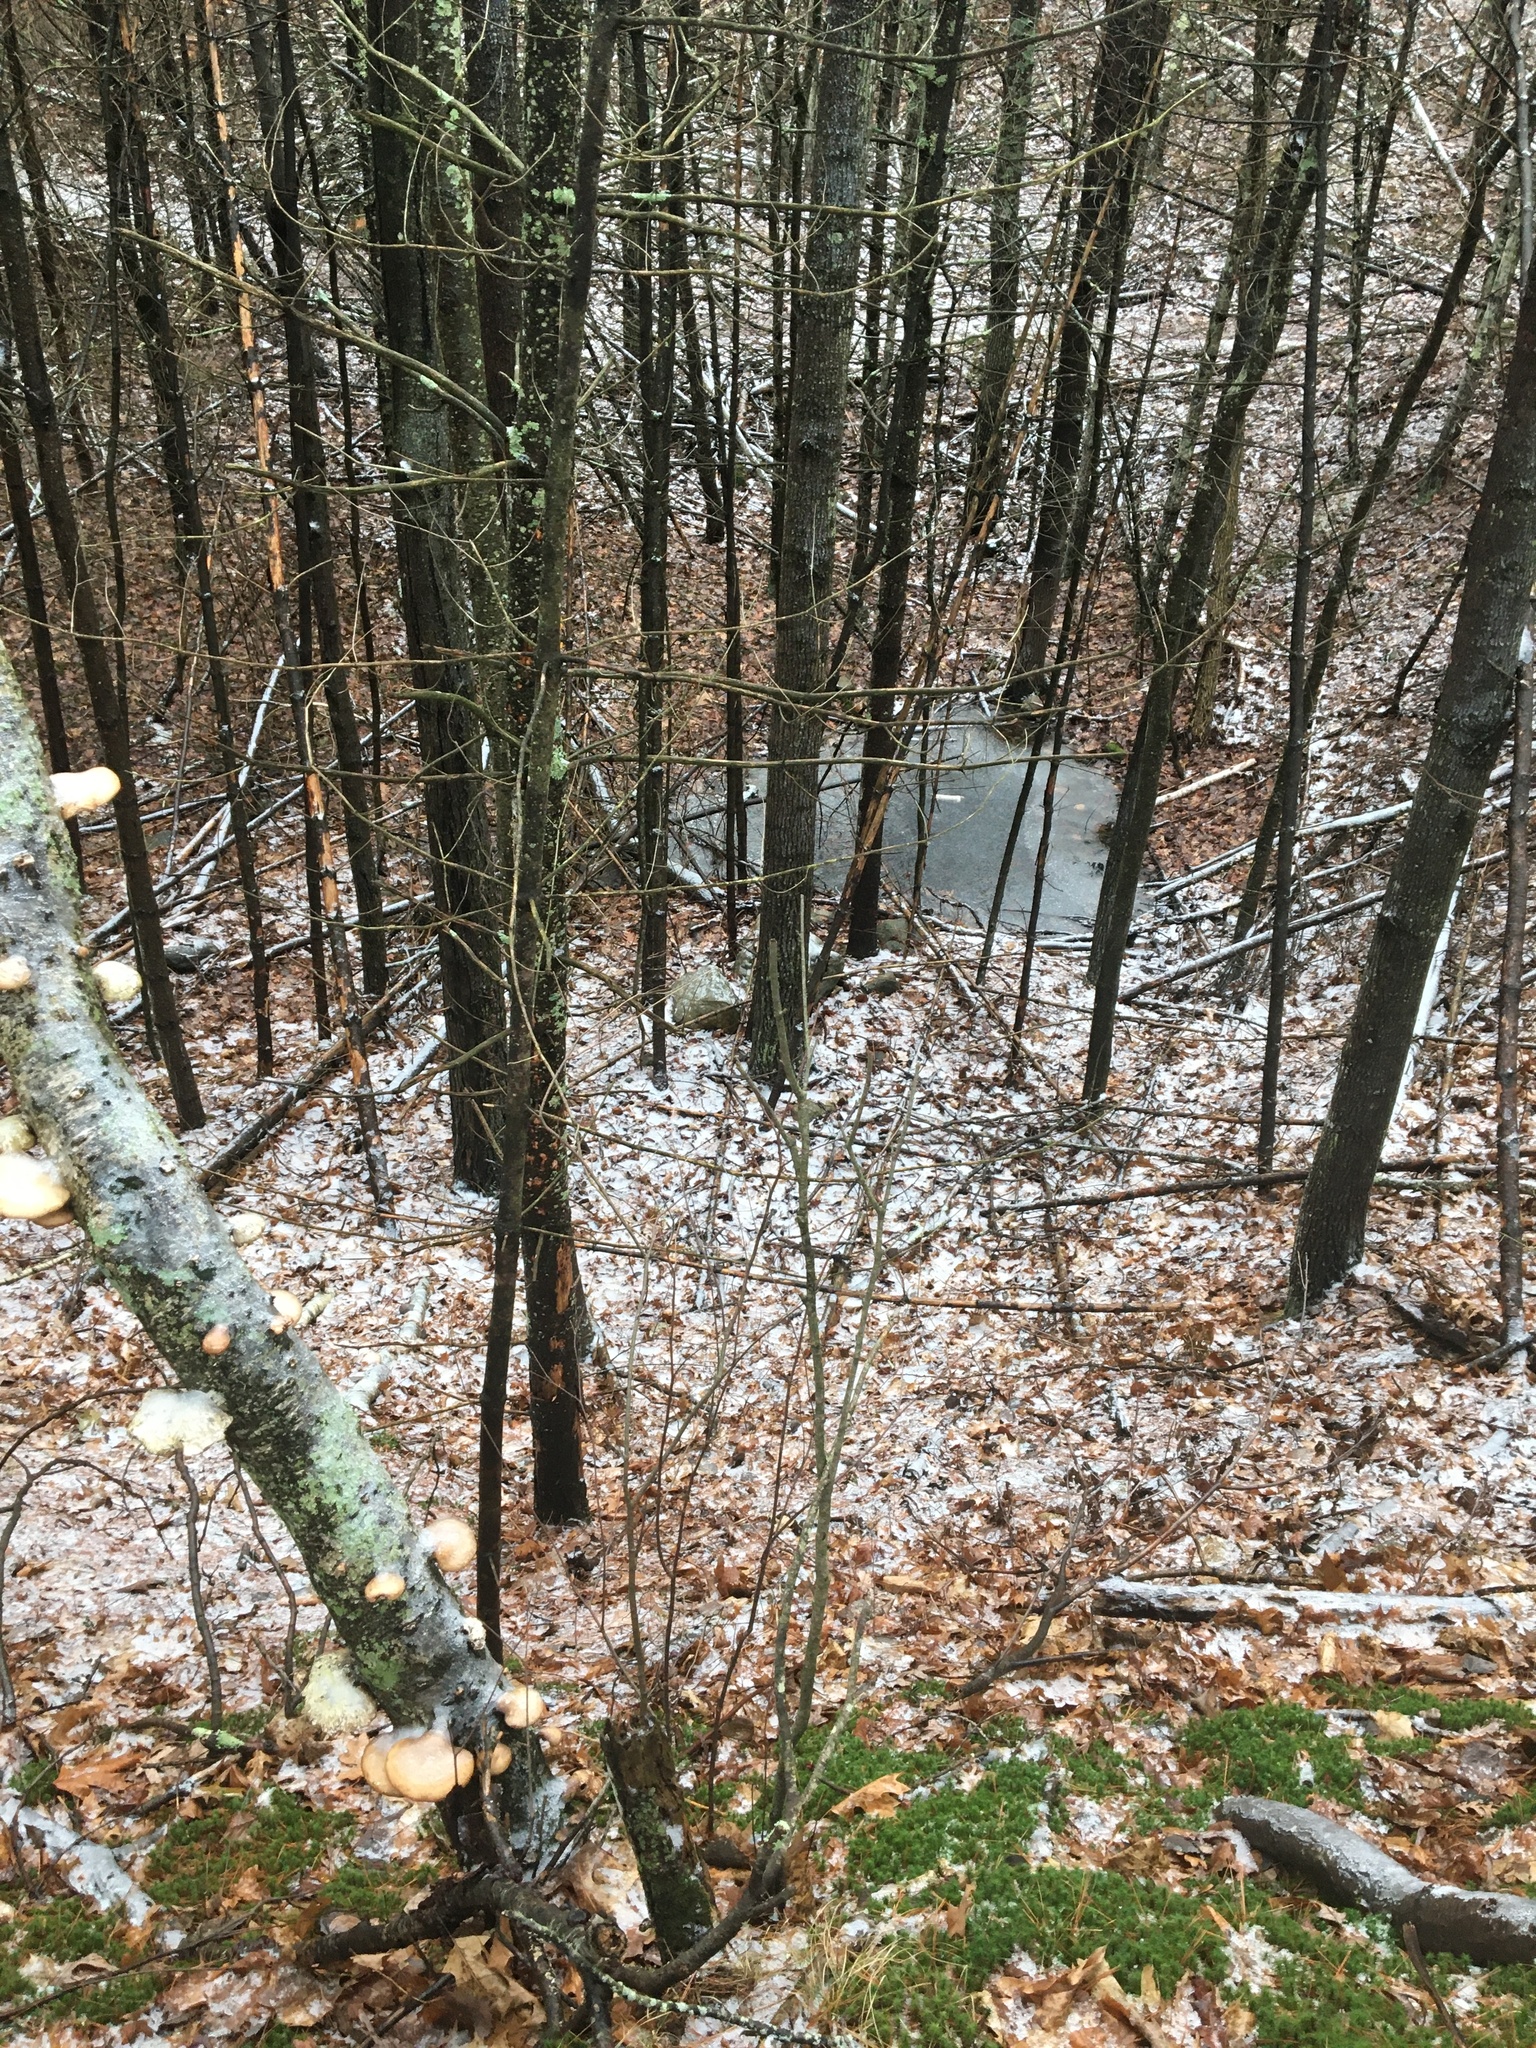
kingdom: Fungi
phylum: Basidiomycota
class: Agaricomycetes
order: Polyporales
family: Fomitopsidaceae
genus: Fomitopsis
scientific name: Fomitopsis betulina
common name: Birch polypore
